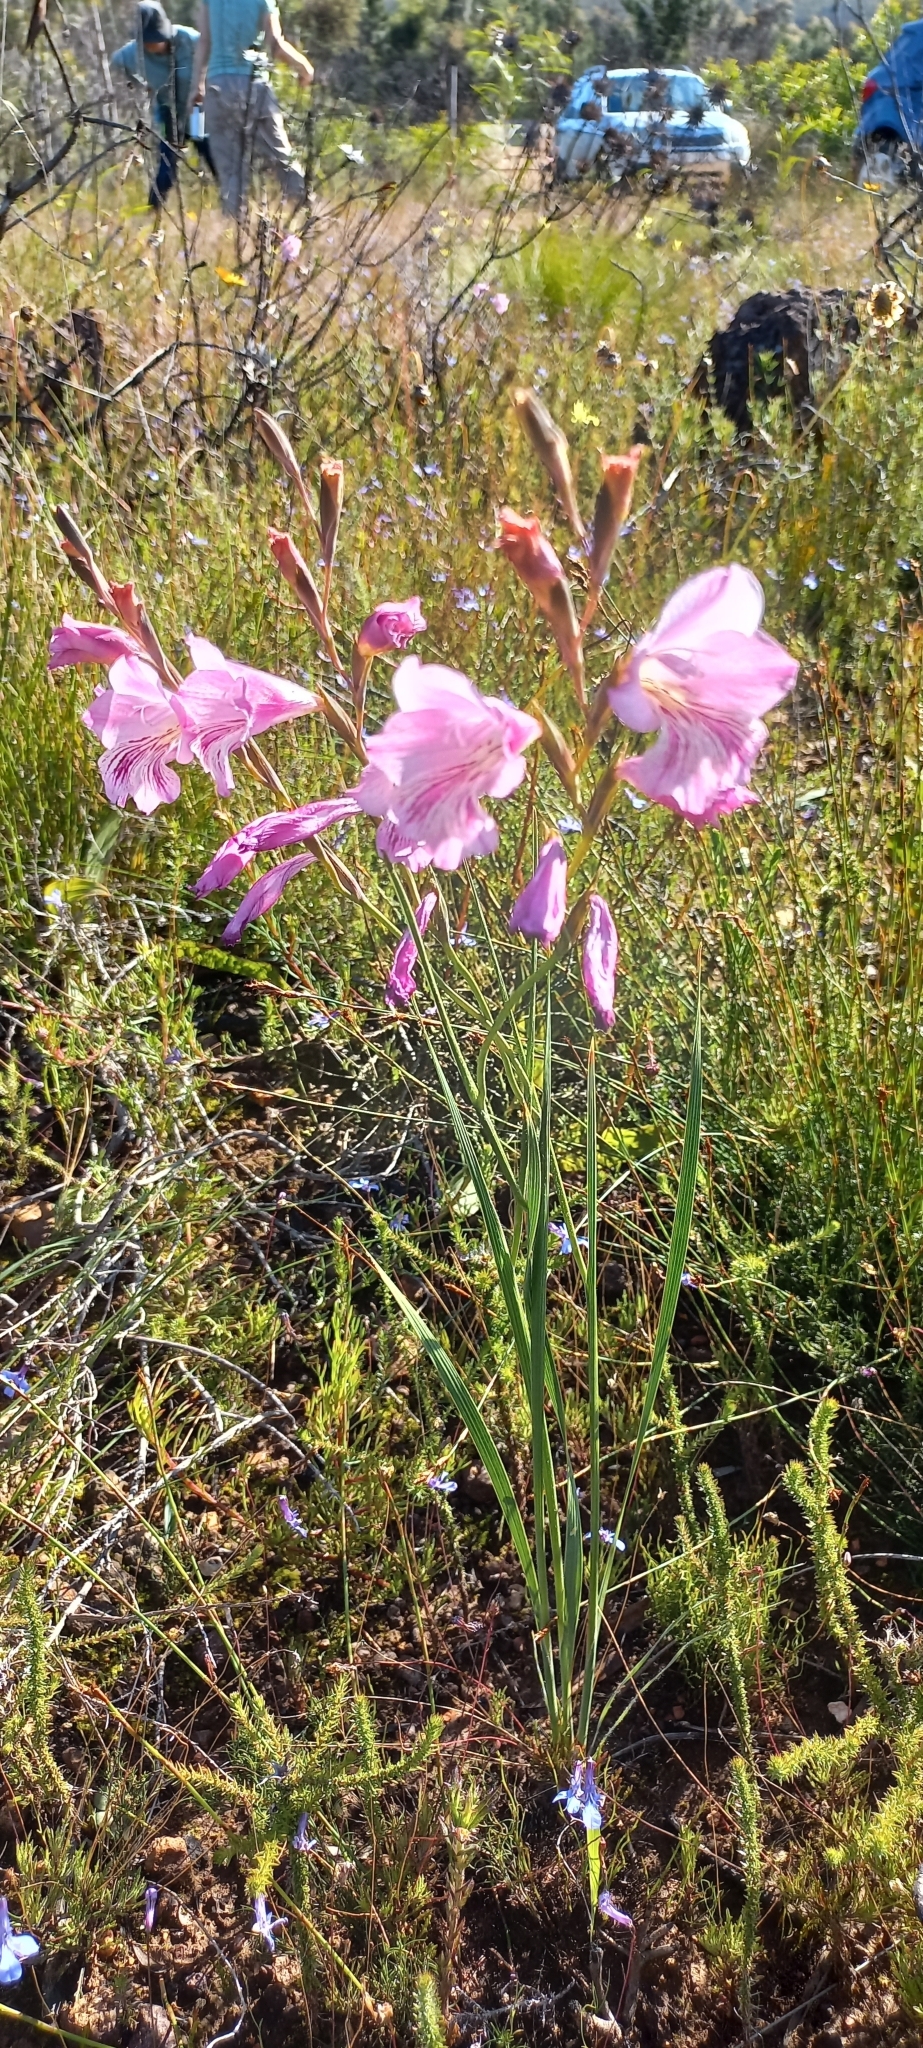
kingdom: Plantae
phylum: Tracheophyta
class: Liliopsida
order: Asparagales
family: Iridaceae
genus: Gladiolus
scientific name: Gladiolus hirsutus
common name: Small pink afrikaner
